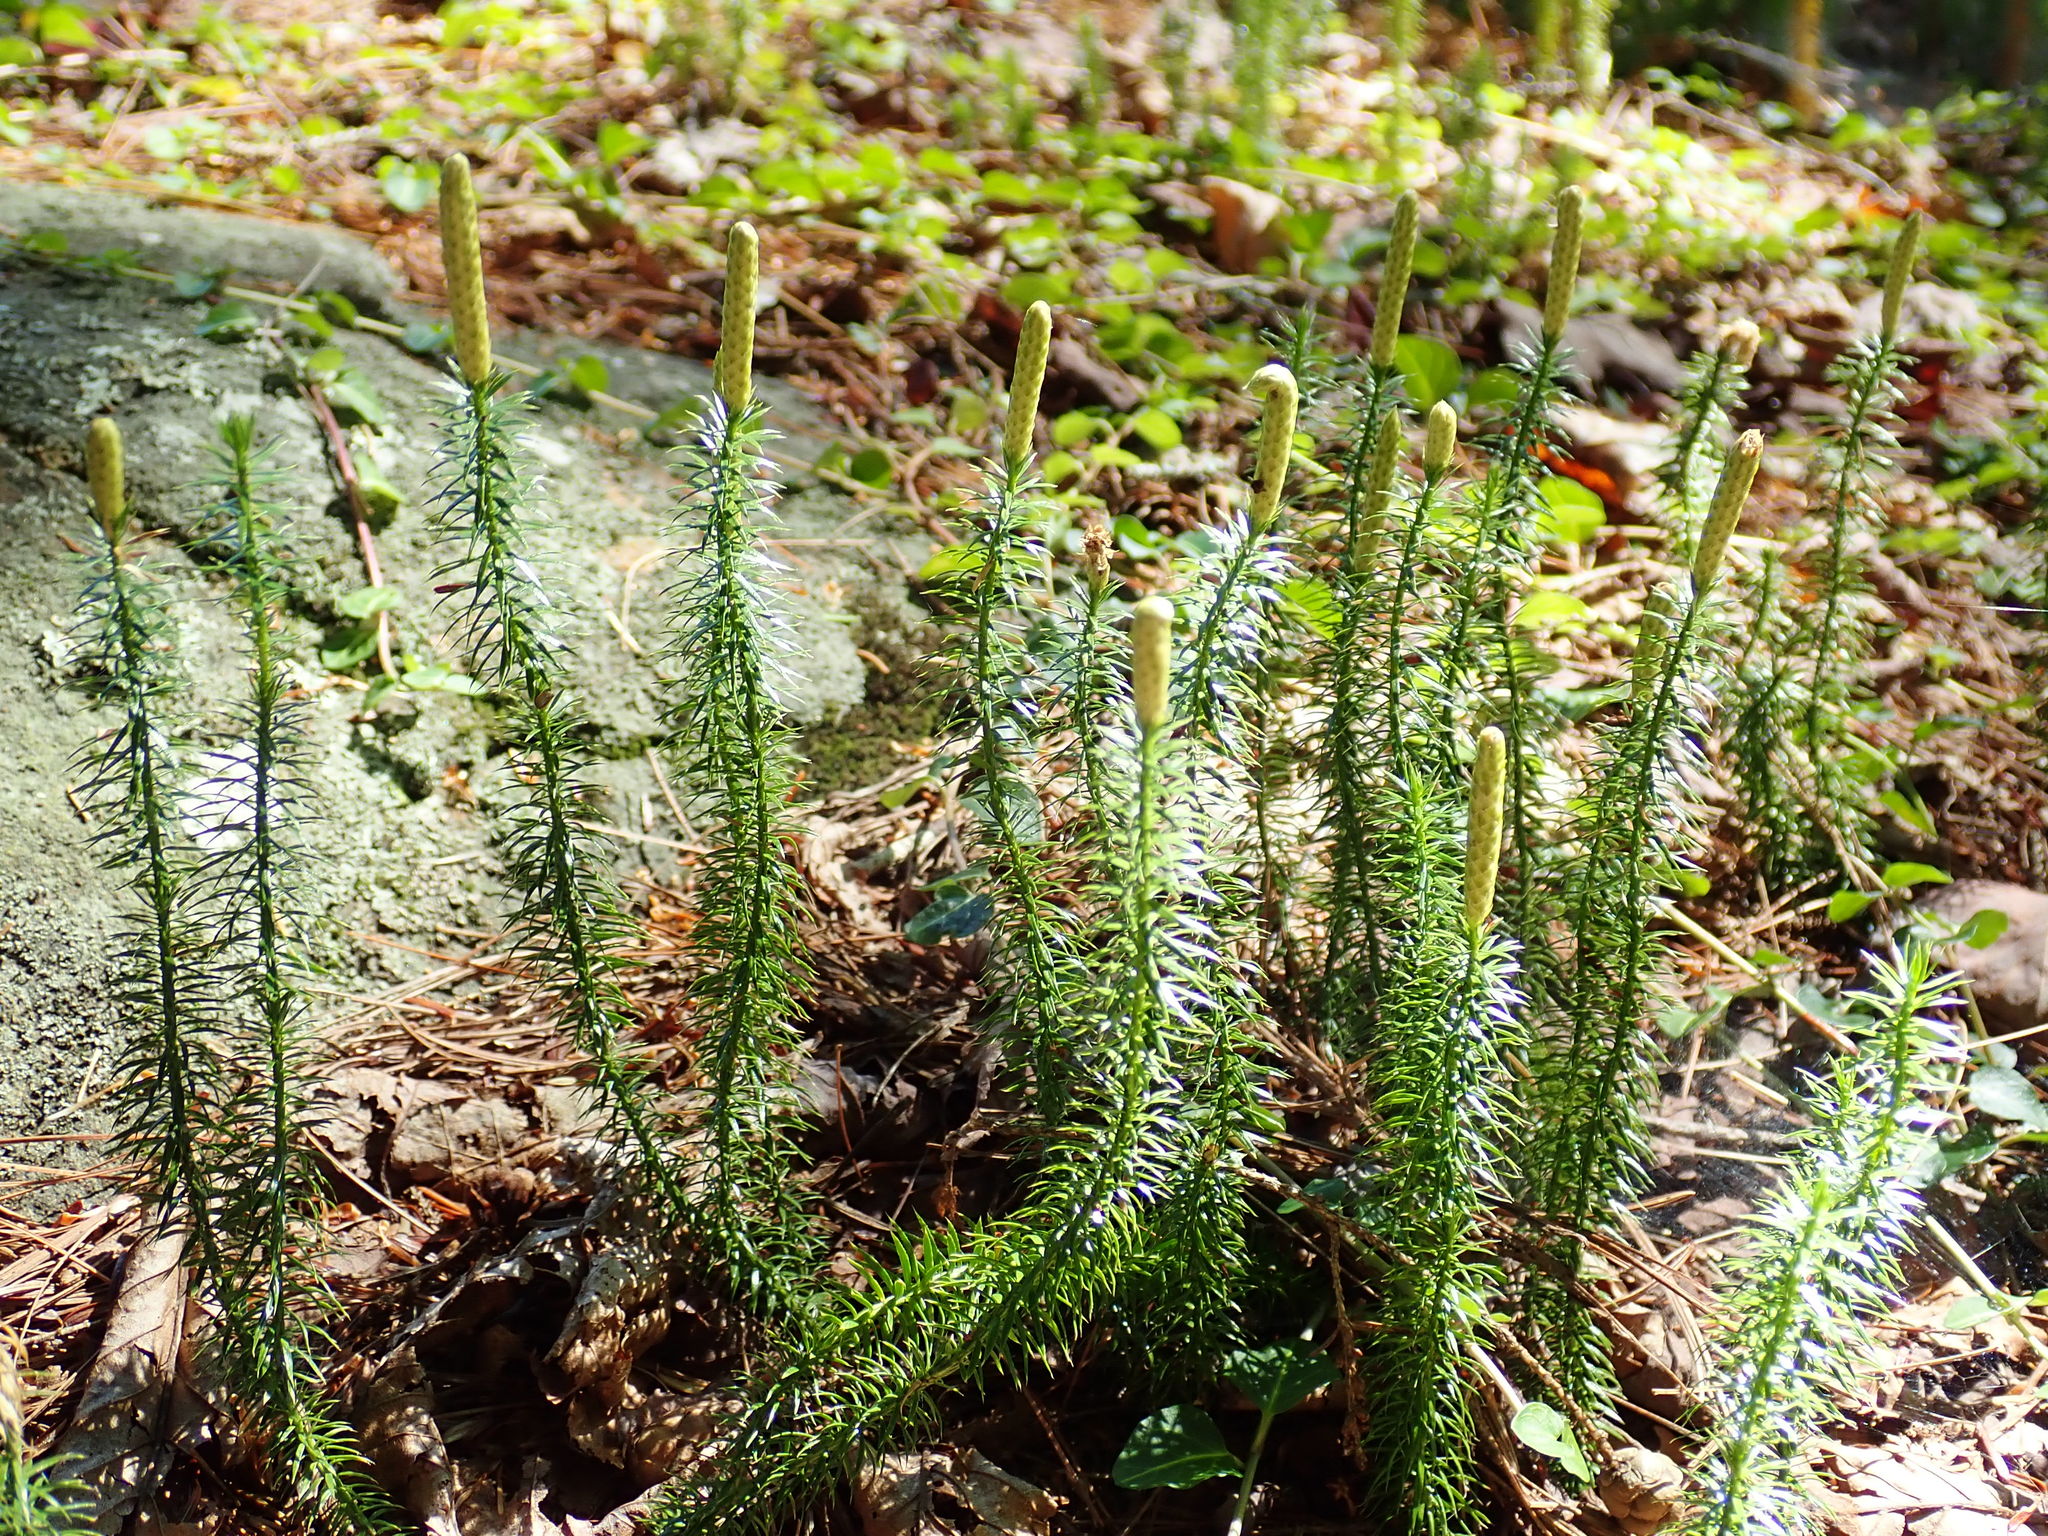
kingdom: Plantae
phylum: Tracheophyta
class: Lycopodiopsida
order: Lycopodiales
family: Lycopodiaceae
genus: Spinulum
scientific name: Spinulum annotinum
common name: Interrupted club-moss
